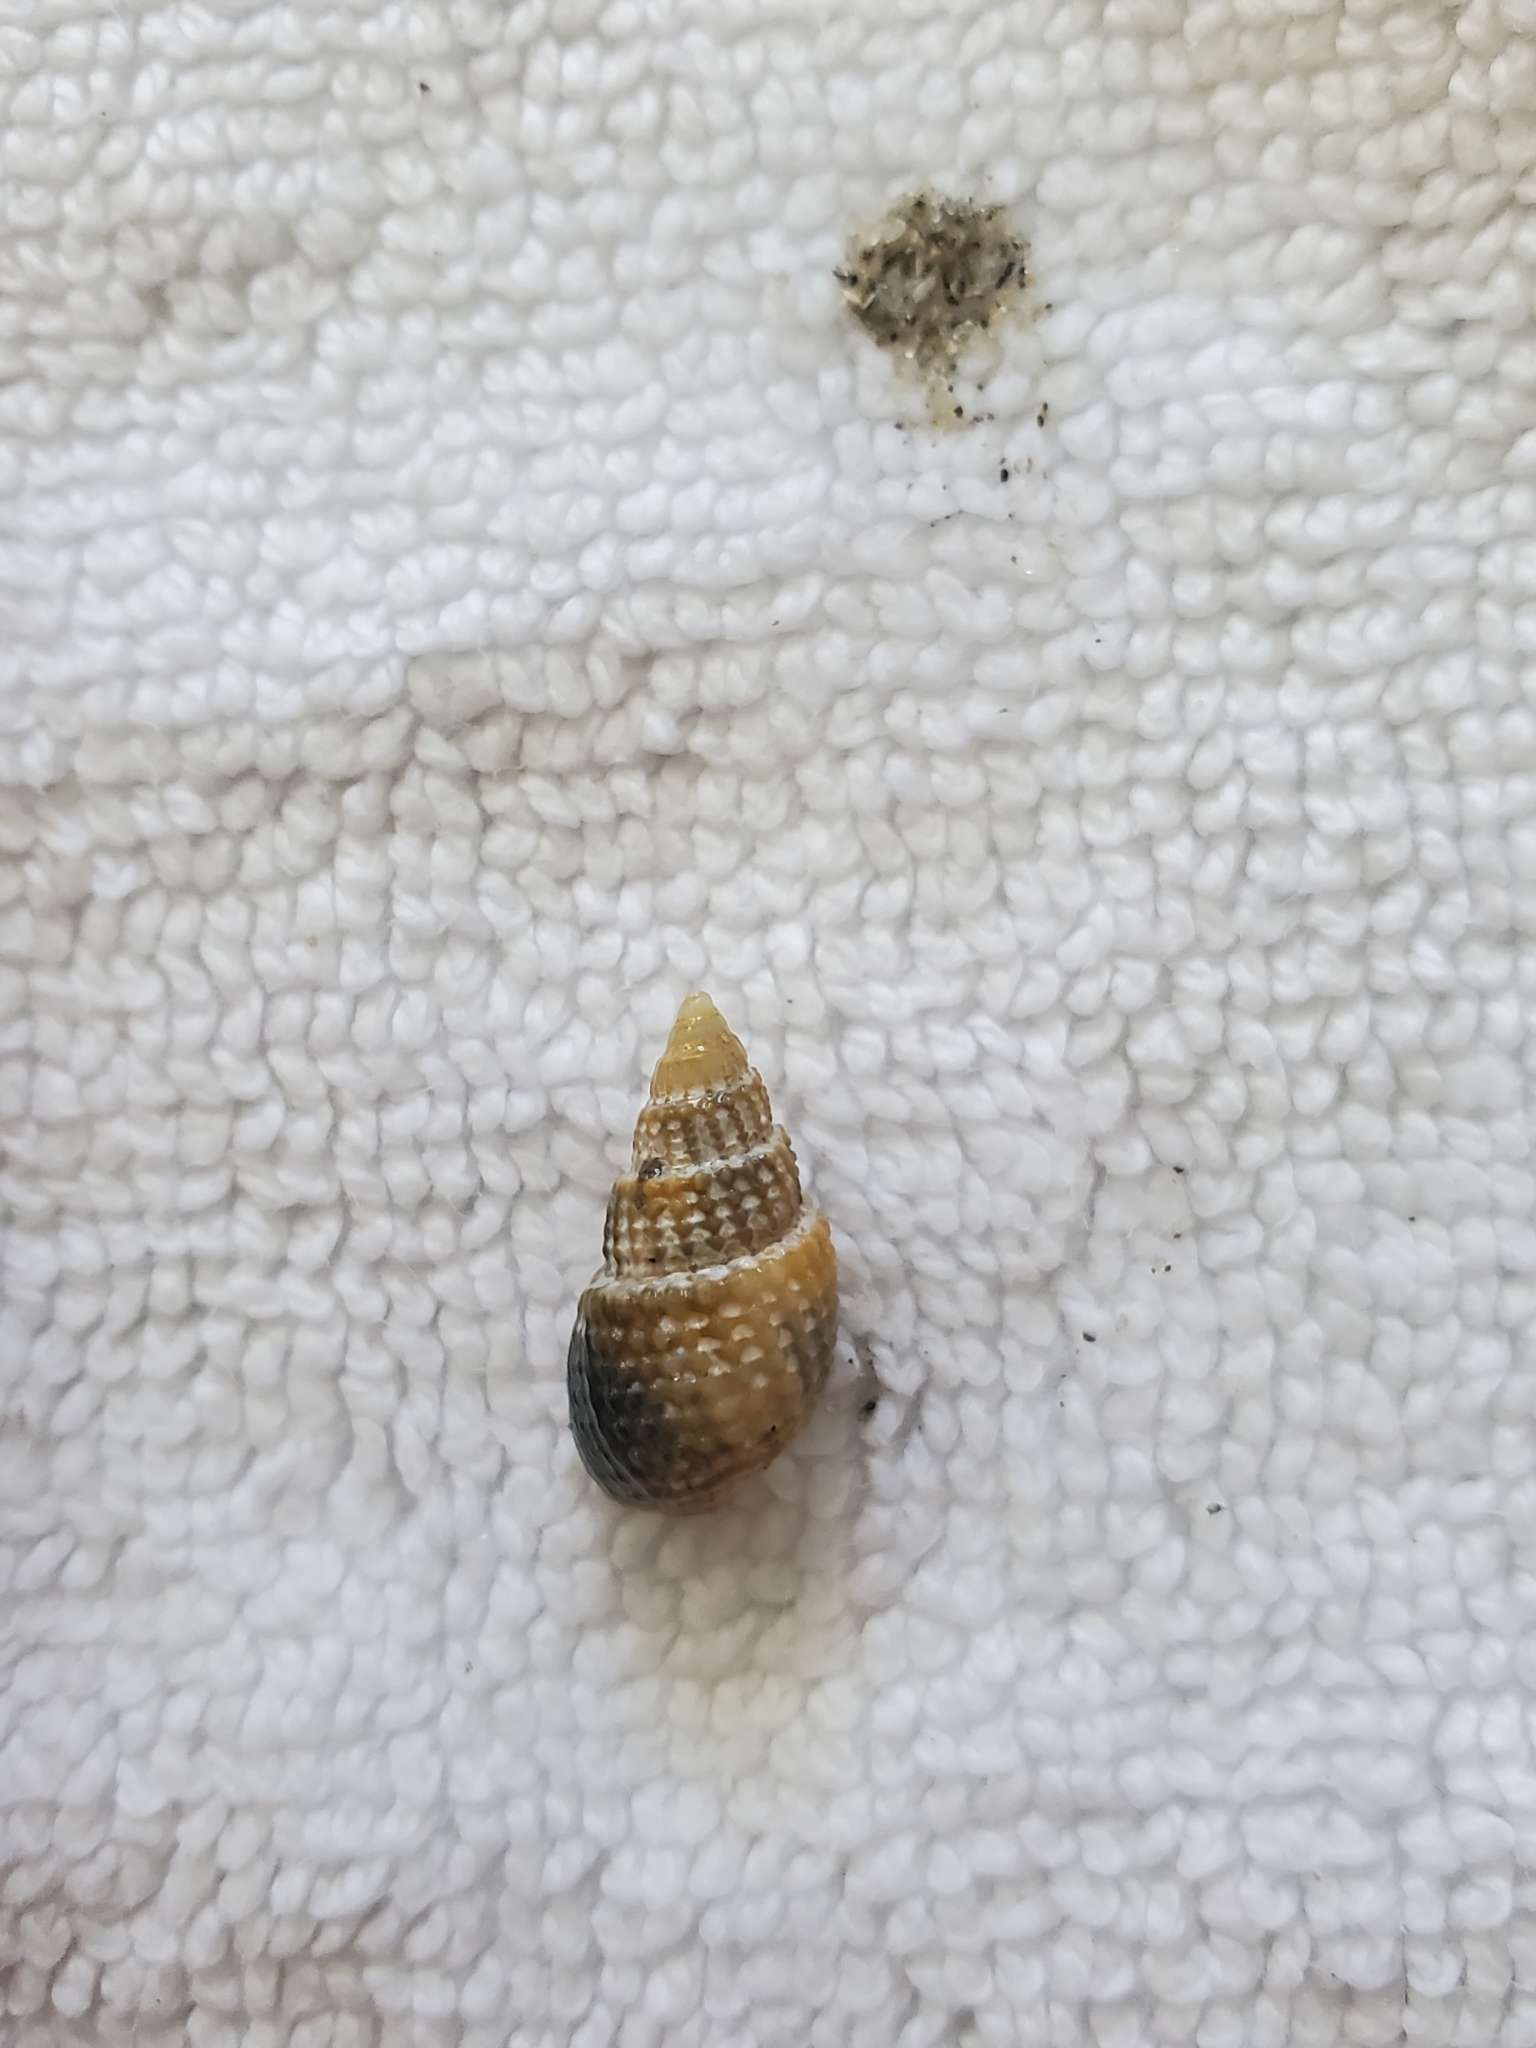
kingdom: Animalia
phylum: Mollusca
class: Gastropoda
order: Neogastropoda
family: Nassariidae
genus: Ilyanassa
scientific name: Ilyanassa trivittata
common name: Three-line mudsnail
